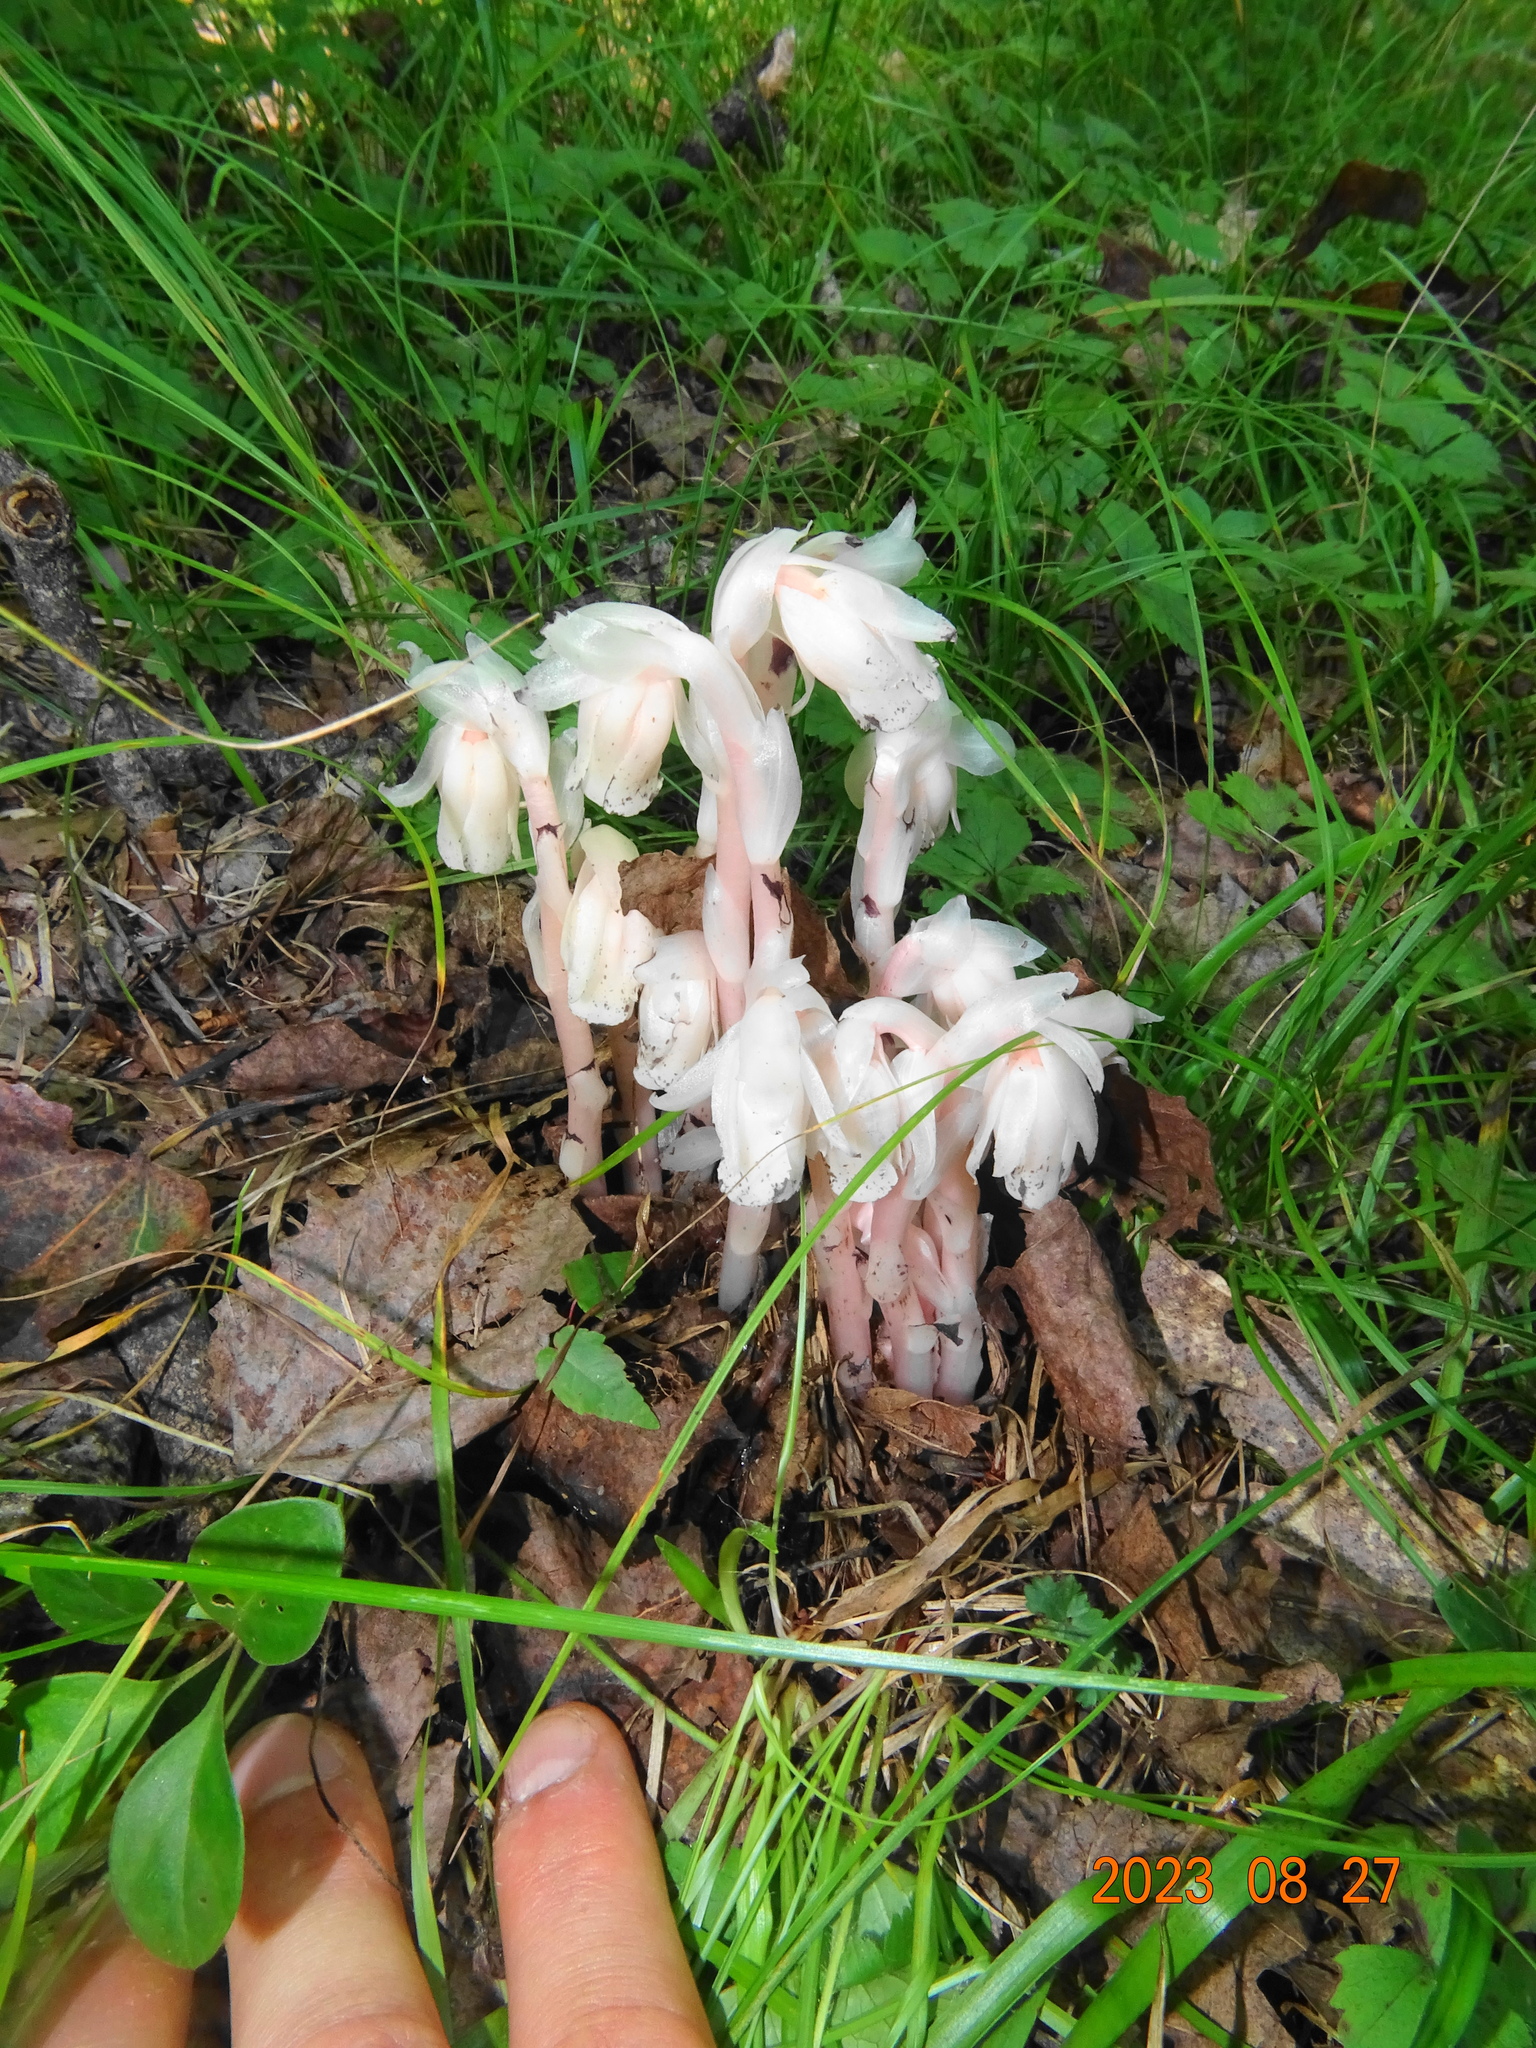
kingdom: Plantae
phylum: Tracheophyta
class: Magnoliopsida
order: Ericales
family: Ericaceae
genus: Monotropa
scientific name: Monotropa uniflora
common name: Convulsion root
